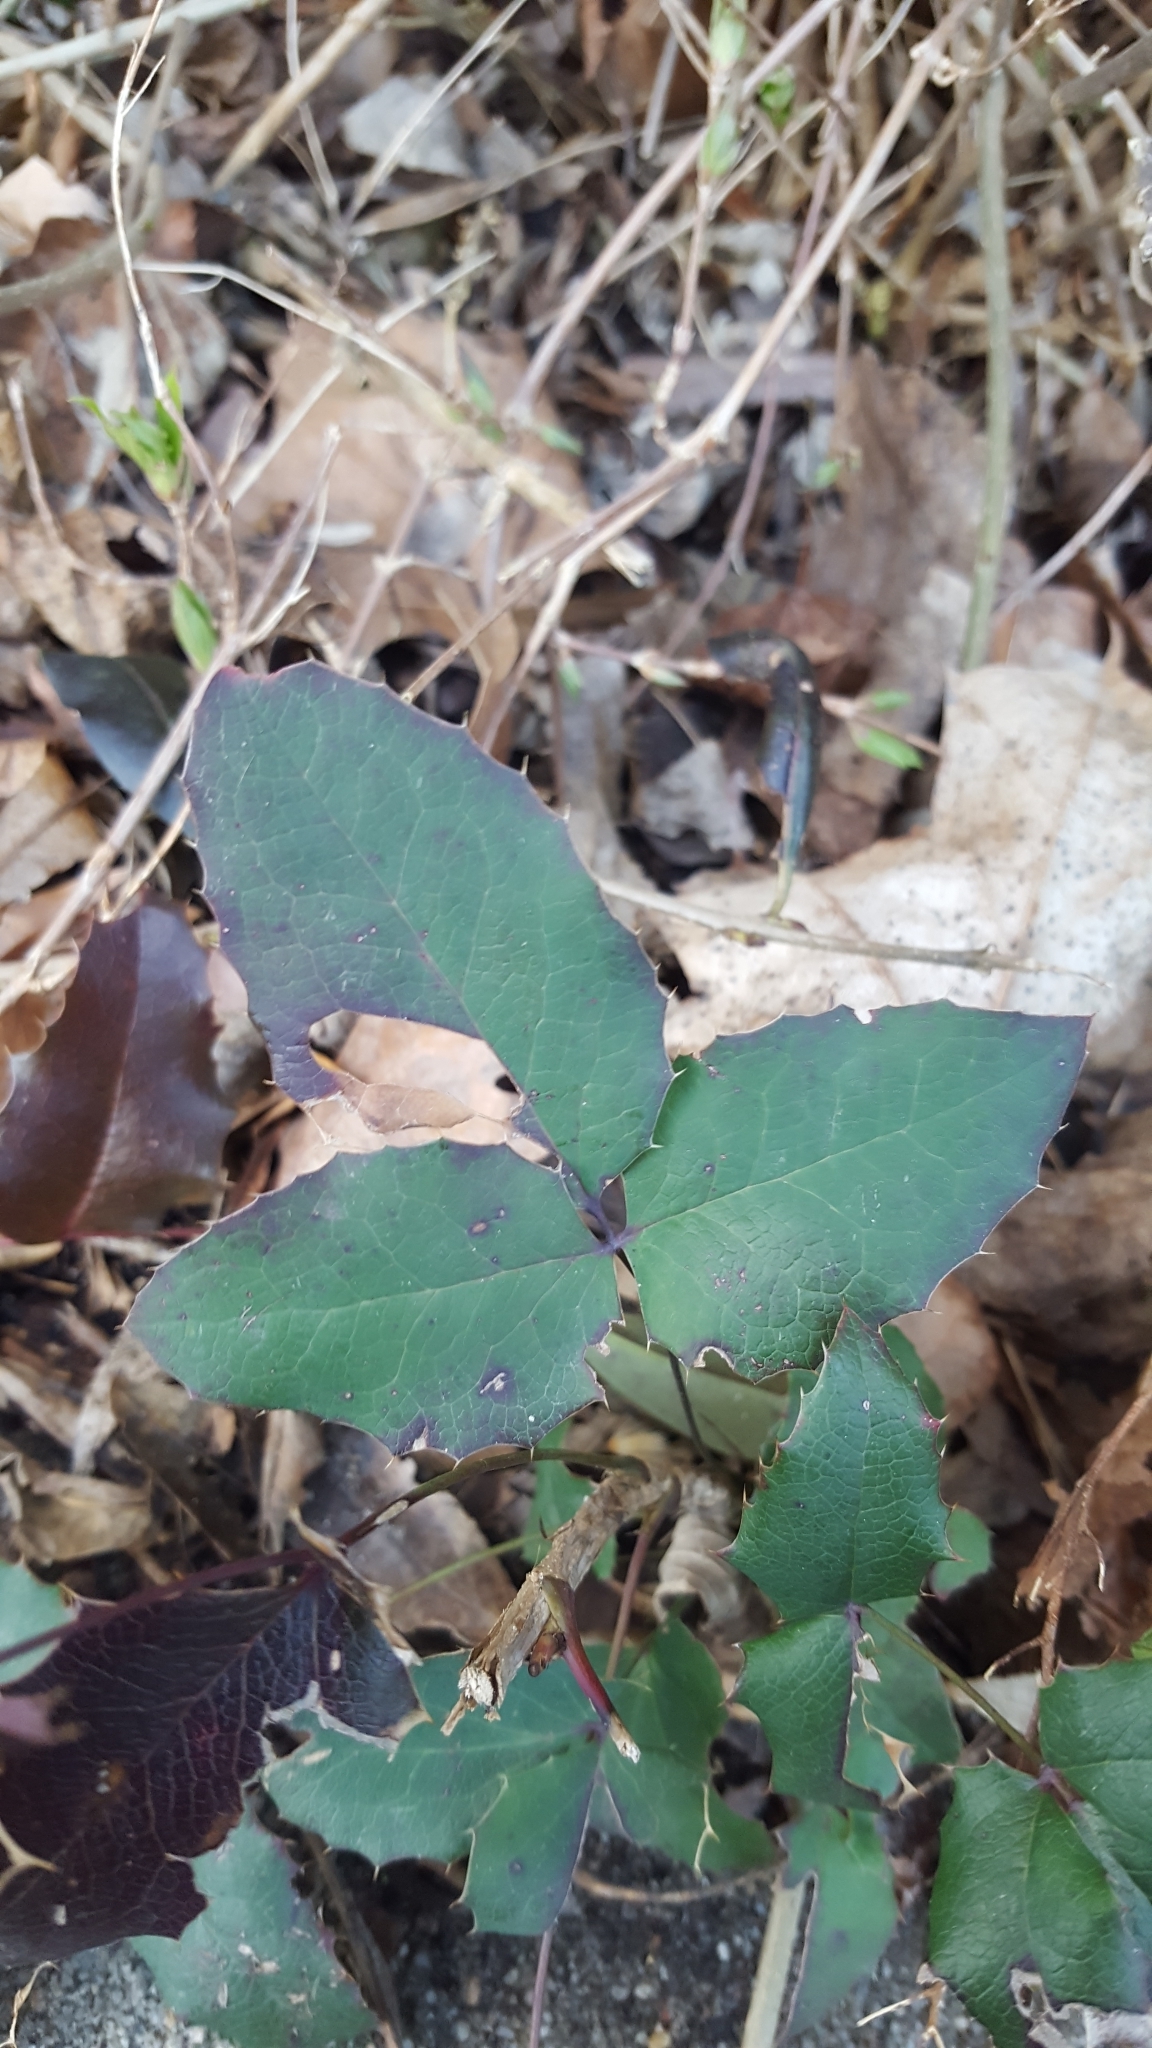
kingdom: Plantae
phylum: Tracheophyta
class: Magnoliopsida
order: Ranunculales
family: Berberidaceae
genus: Mahonia
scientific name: Mahonia aquifolium
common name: Oregon-grape
